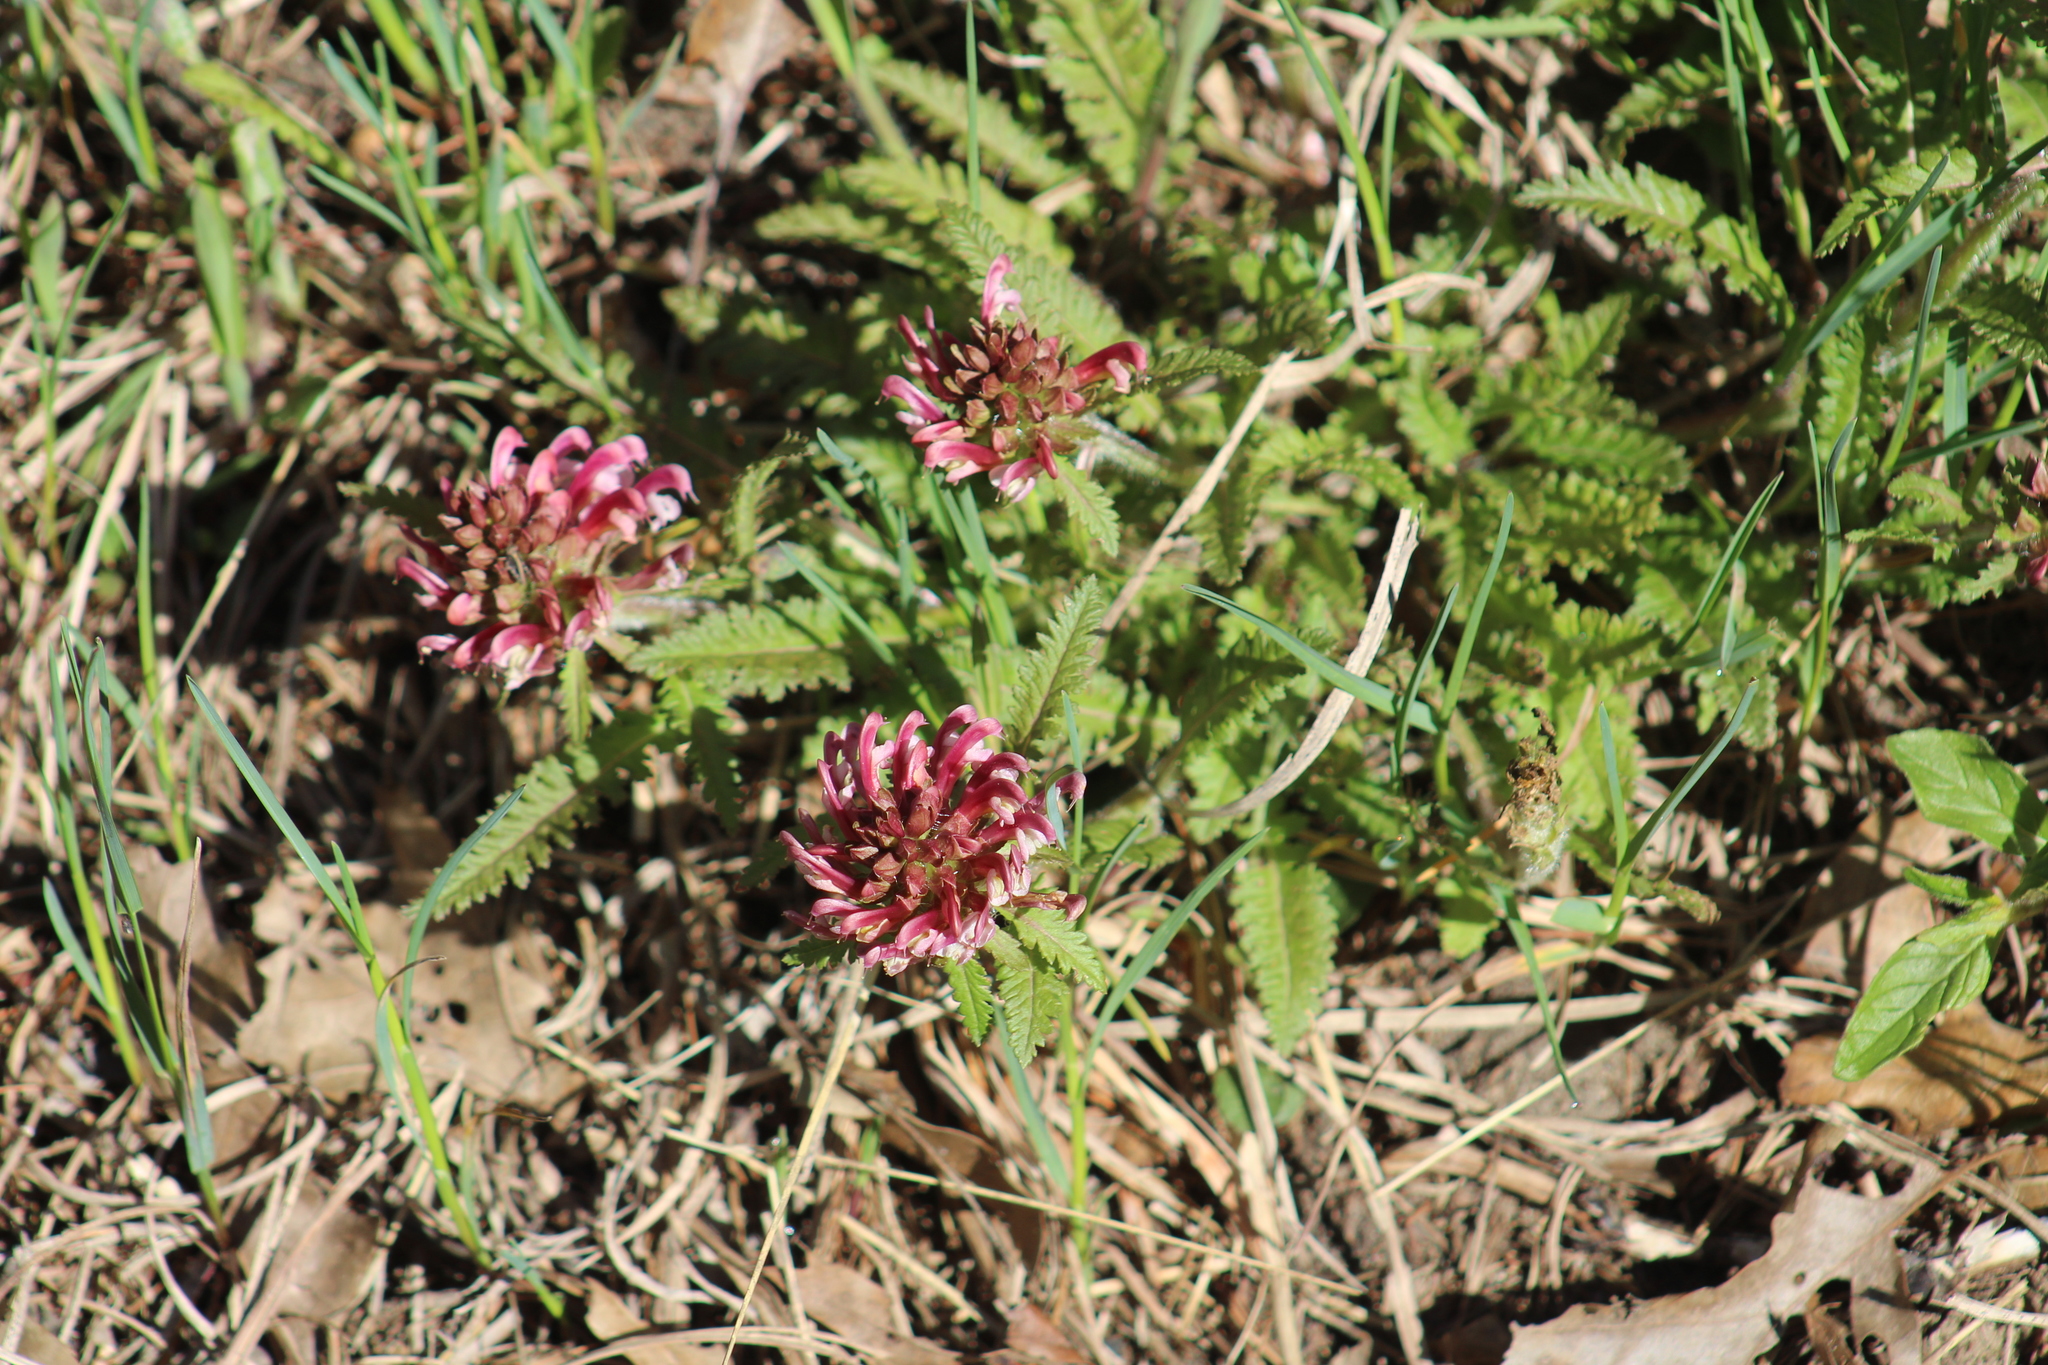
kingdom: Plantae
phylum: Tracheophyta
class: Magnoliopsida
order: Lamiales
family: Orobanchaceae
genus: Pedicularis
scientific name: Pedicularis canadensis
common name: Early lousewort
